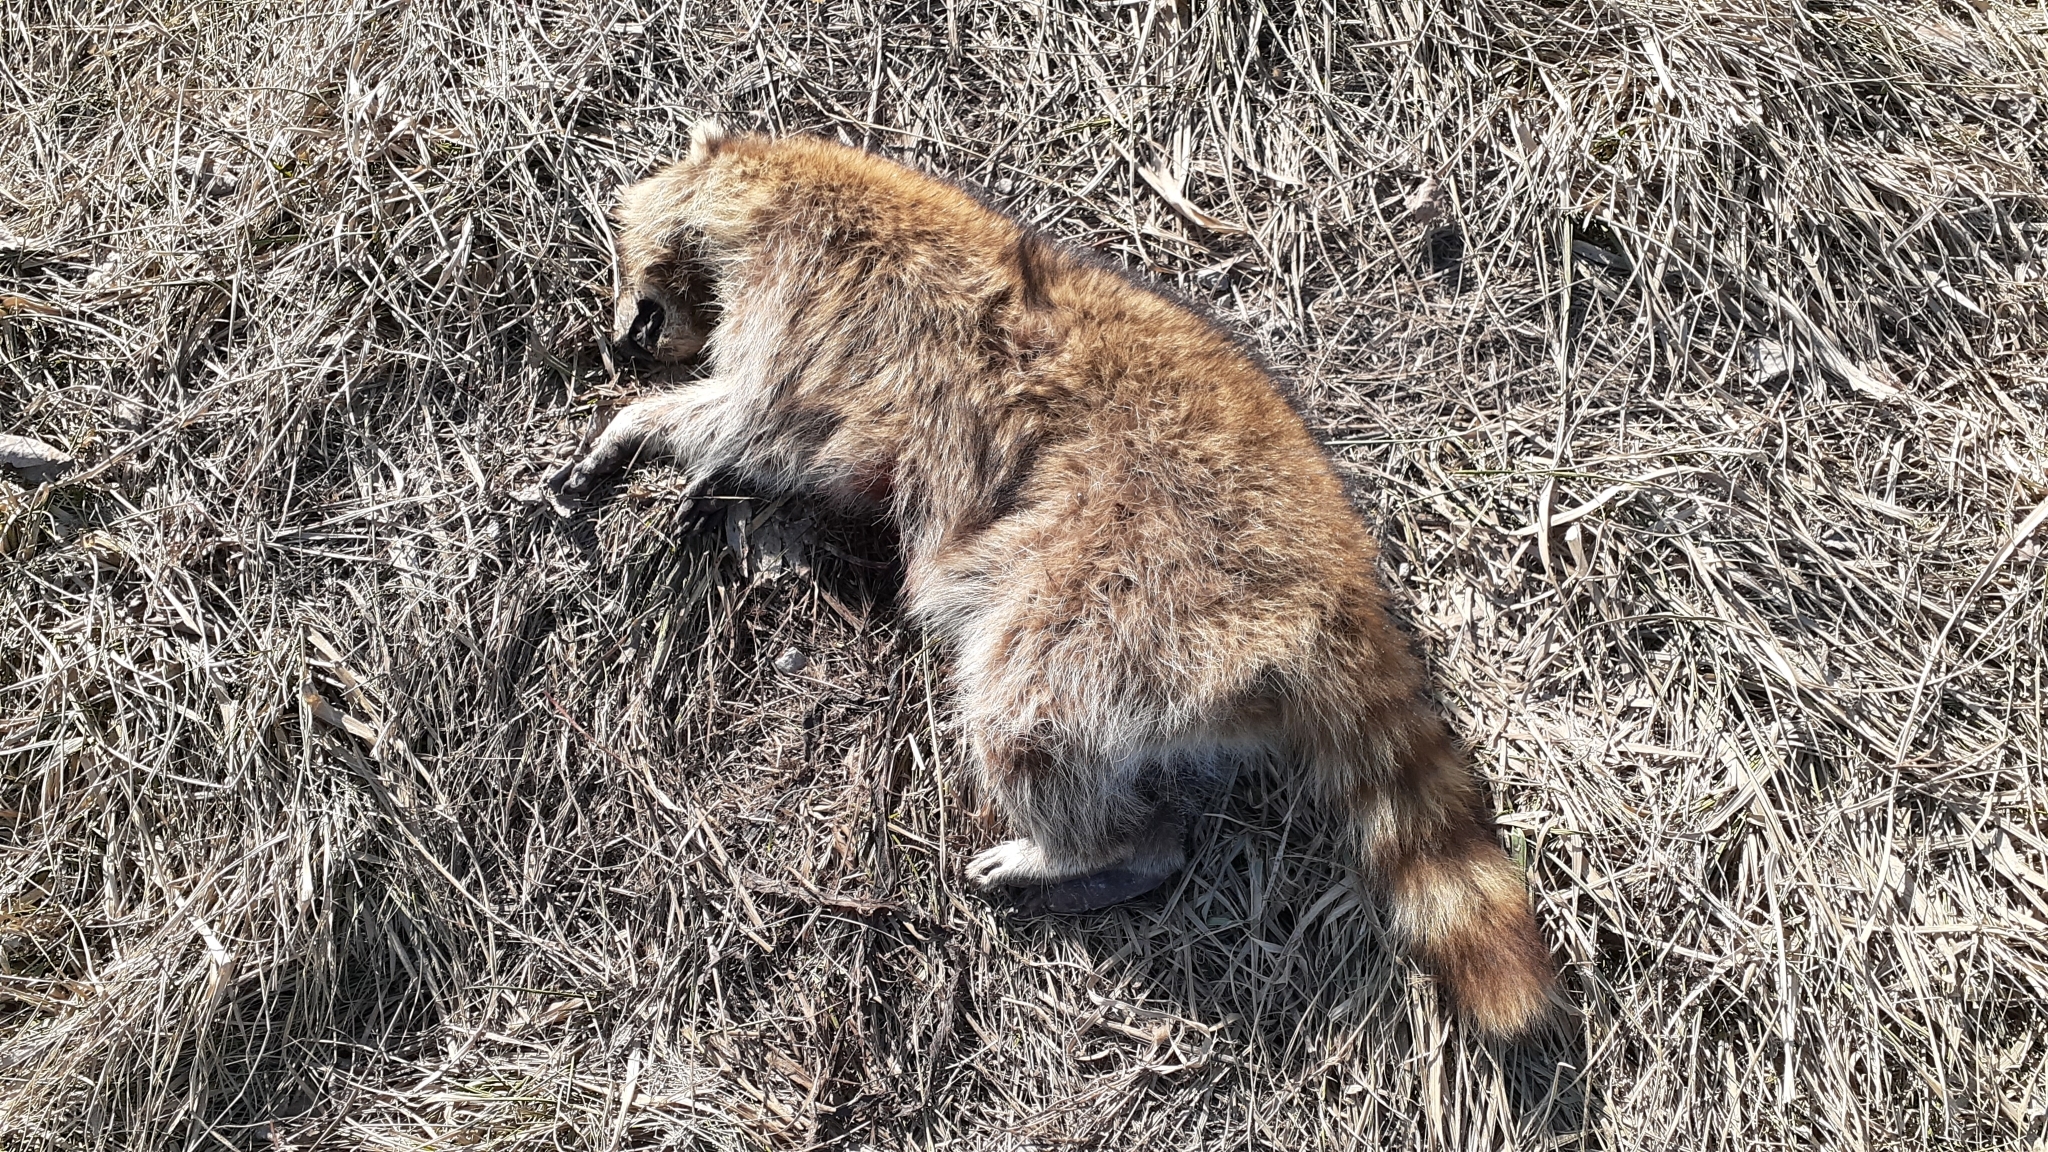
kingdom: Animalia
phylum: Chordata
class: Mammalia
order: Carnivora
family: Procyonidae
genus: Procyon
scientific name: Procyon lotor
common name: Raccoon
